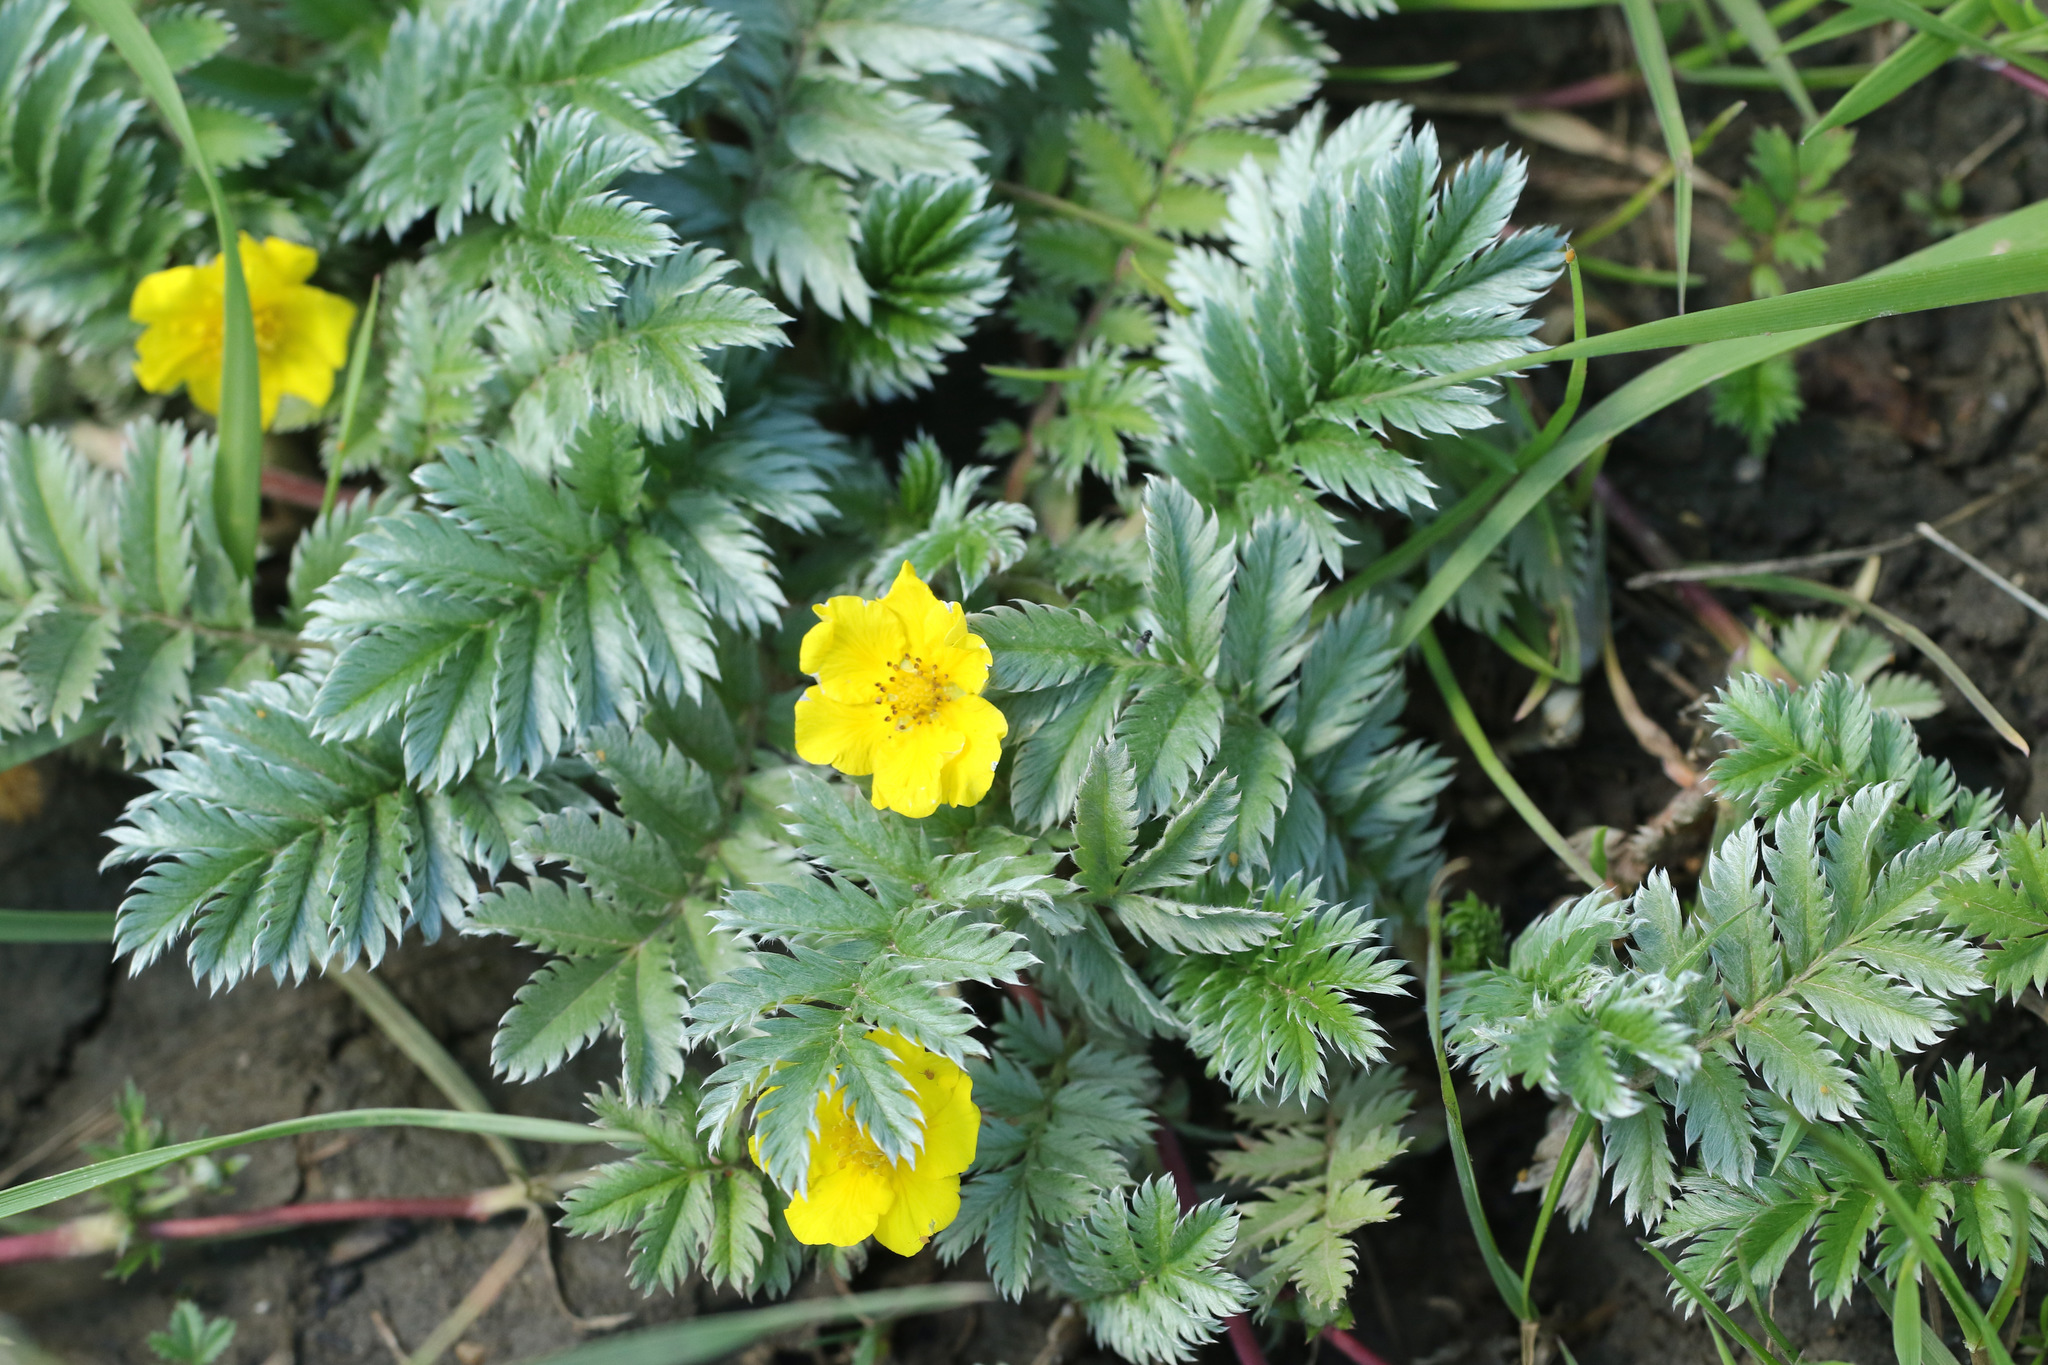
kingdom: Plantae
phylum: Tracheophyta
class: Magnoliopsida
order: Rosales
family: Rosaceae
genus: Argentina
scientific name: Argentina anserina
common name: Common silverweed
